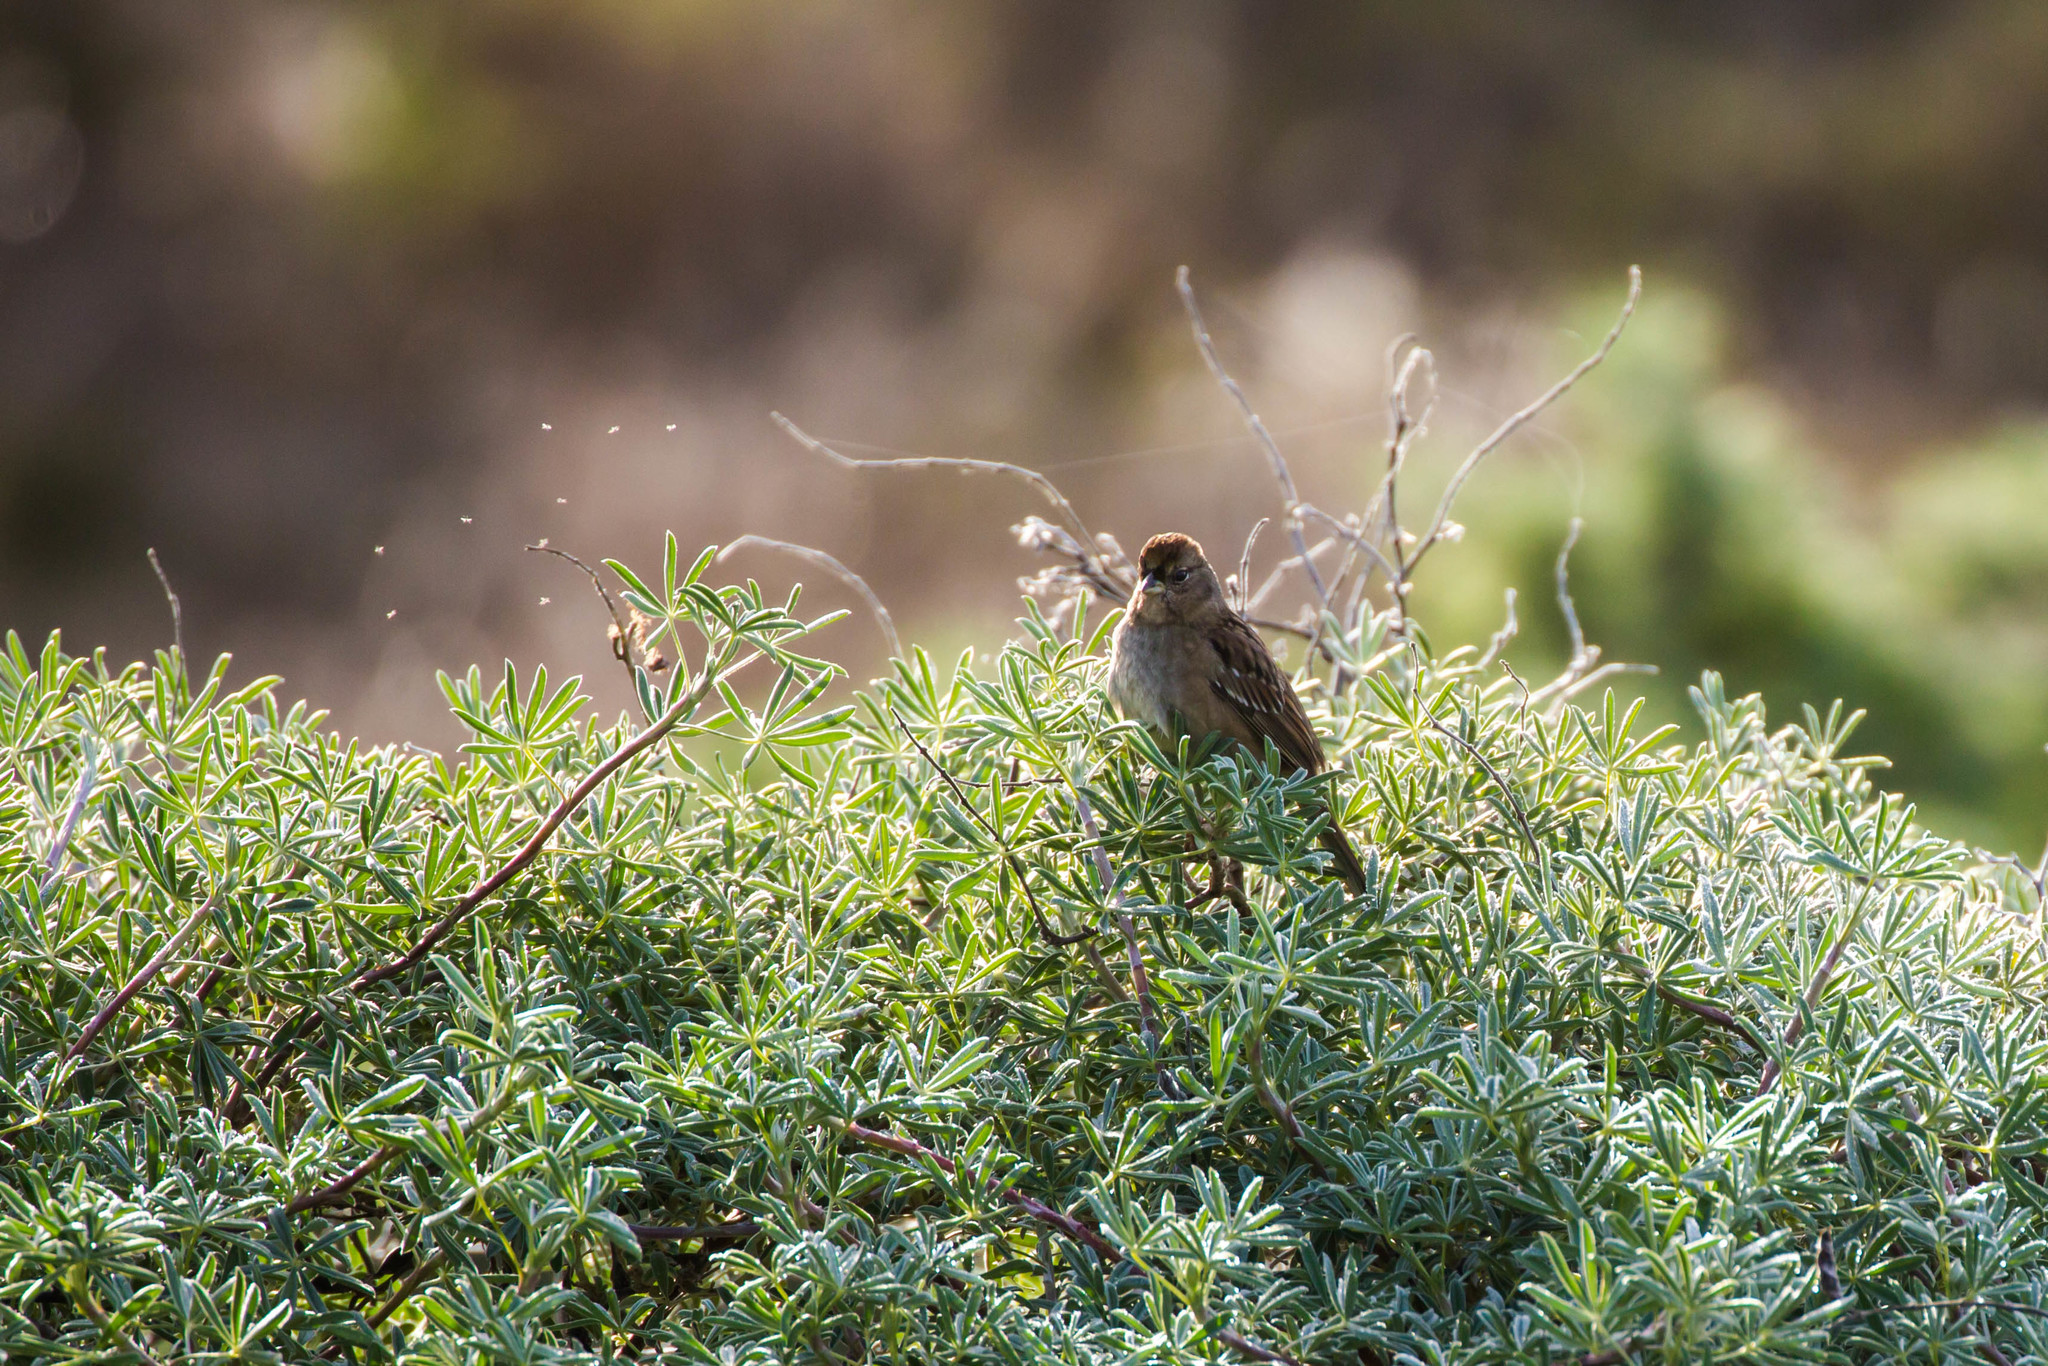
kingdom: Animalia
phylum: Chordata
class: Aves
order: Passeriformes
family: Passerellidae
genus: Zonotrichia
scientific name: Zonotrichia atricapilla
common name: Golden-crowned sparrow
